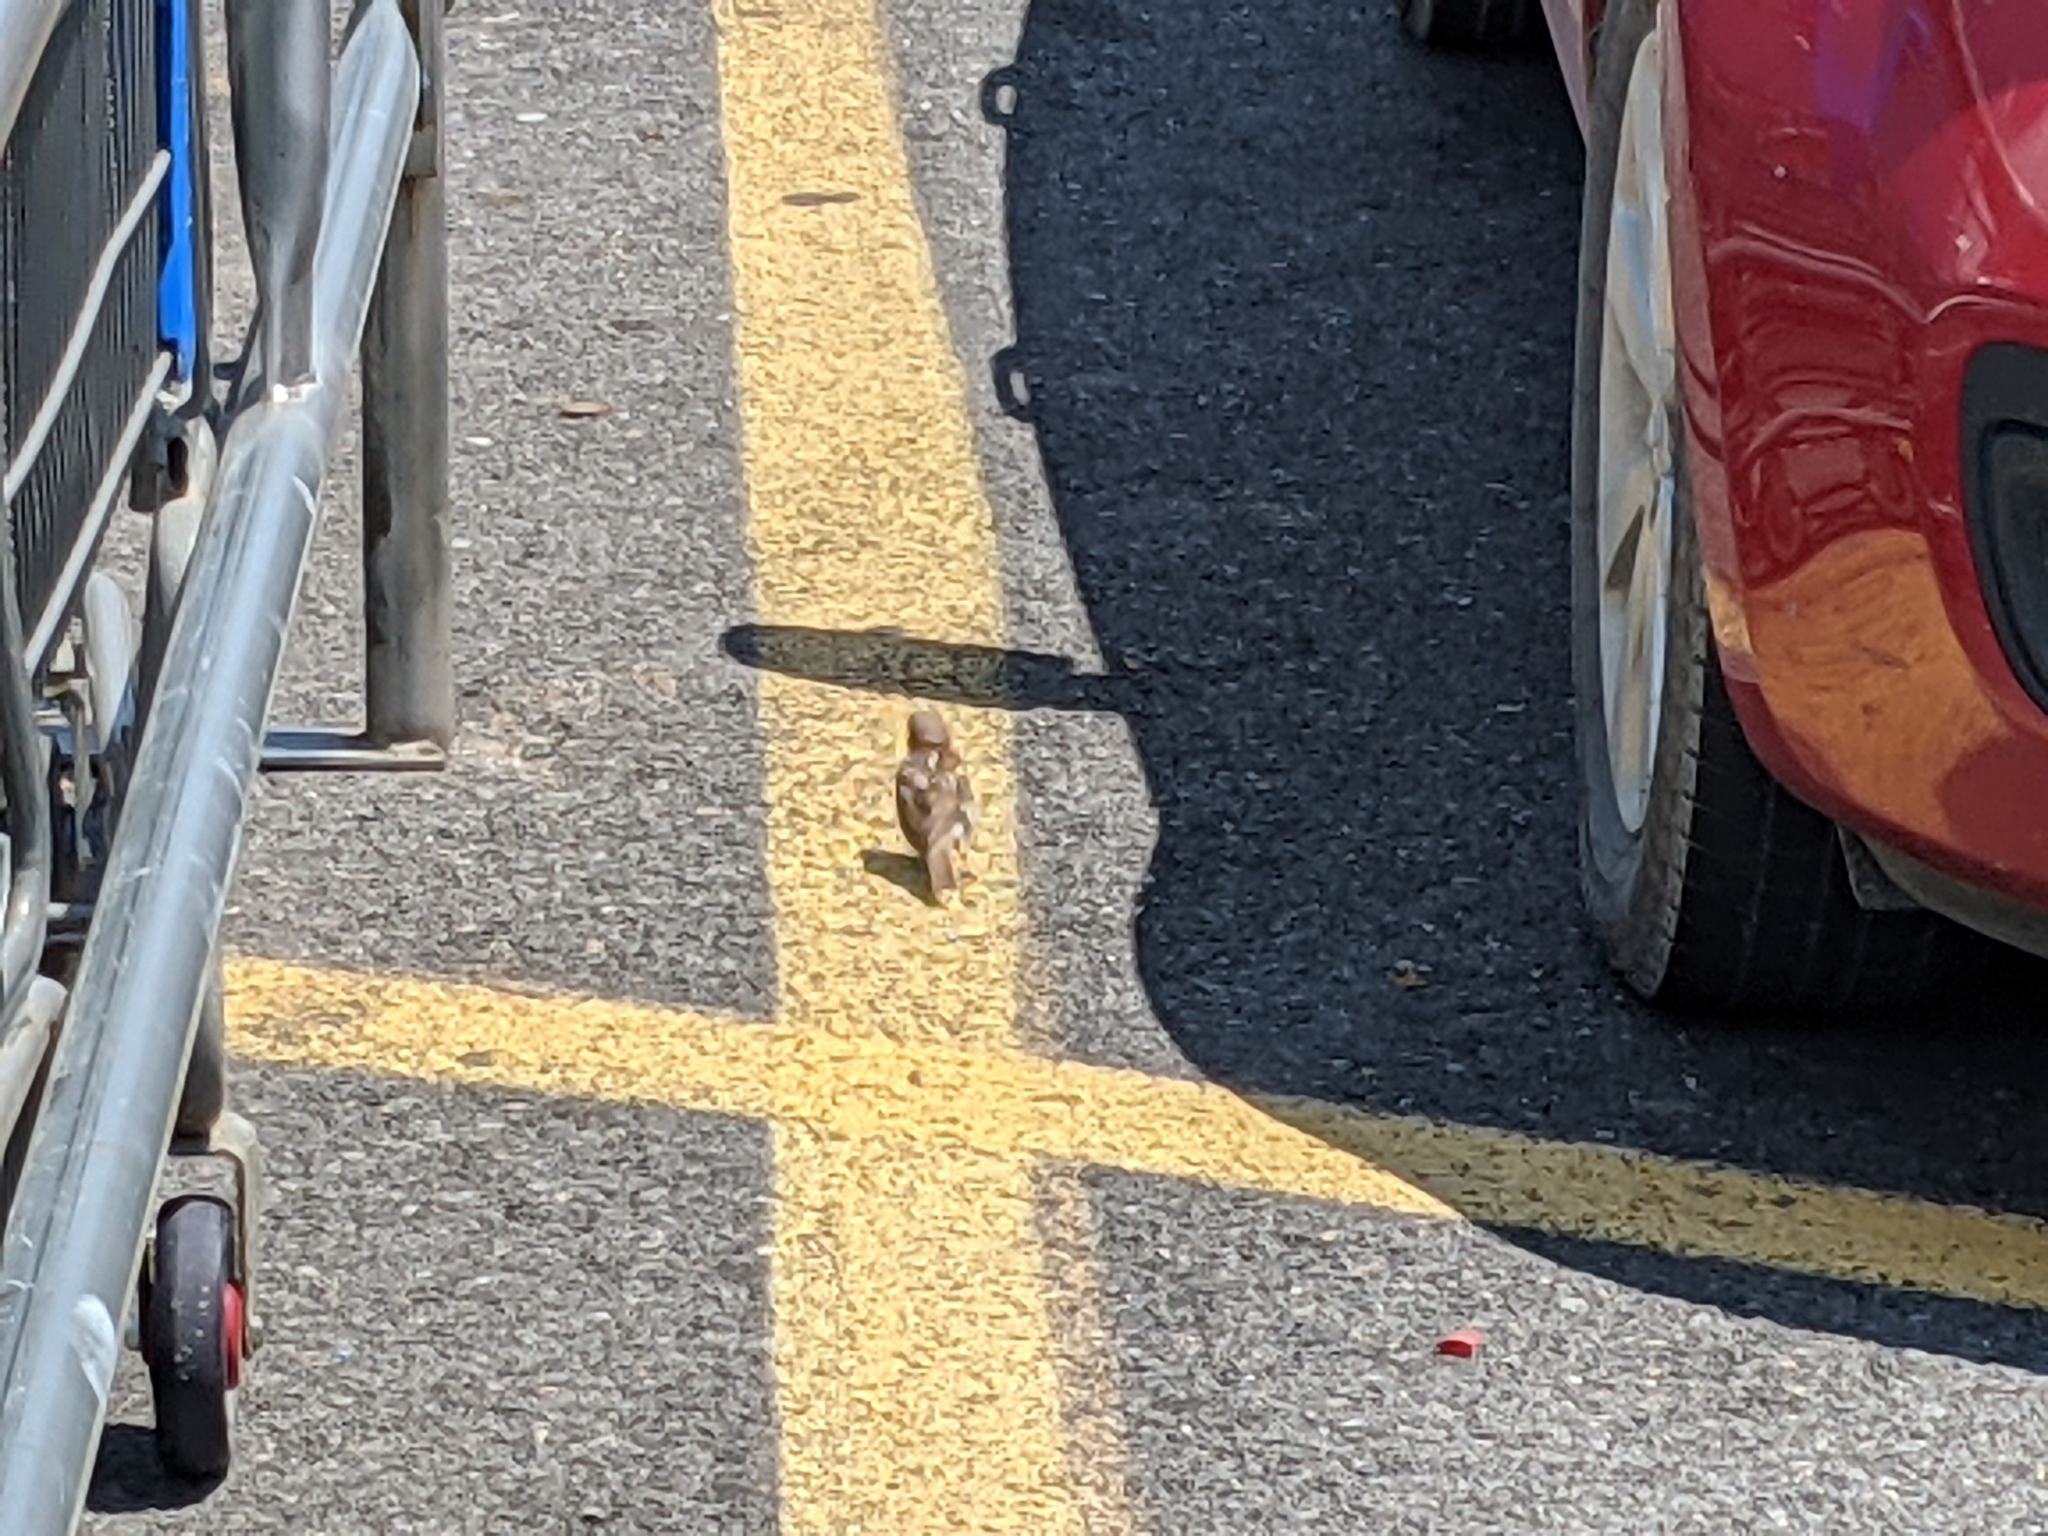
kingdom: Animalia
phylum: Chordata
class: Aves
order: Passeriformes
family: Passeridae
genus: Passer
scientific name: Passer domesticus
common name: House sparrow
